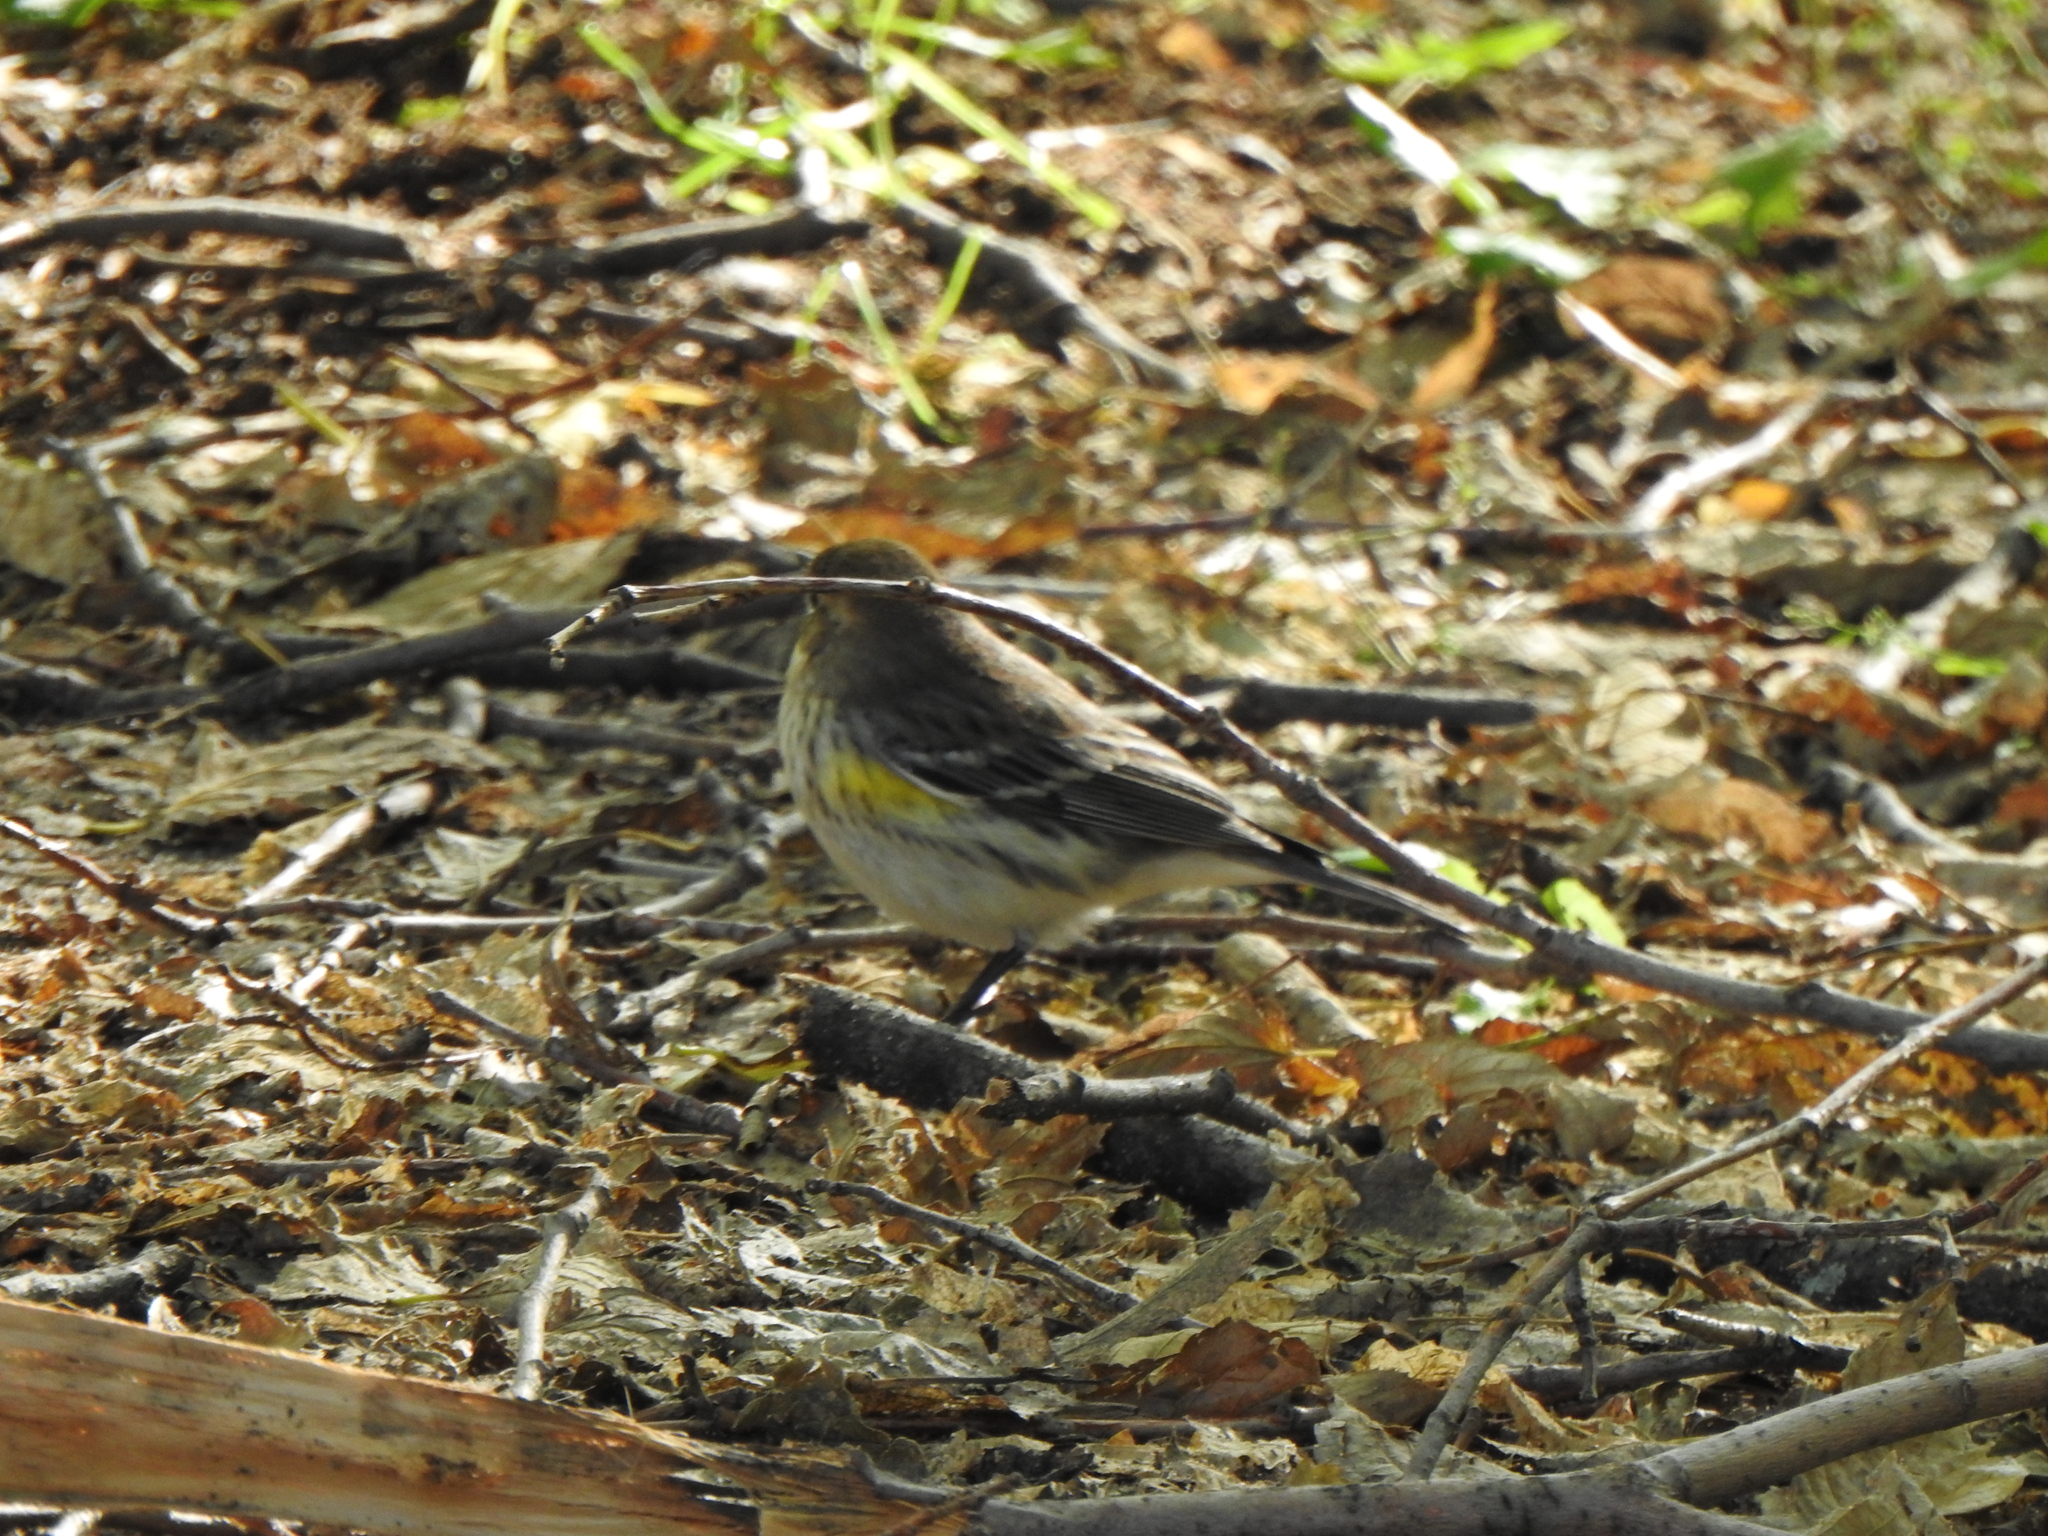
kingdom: Animalia
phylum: Chordata
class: Aves
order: Passeriformes
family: Parulidae
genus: Setophaga
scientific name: Setophaga coronata
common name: Myrtle warbler
